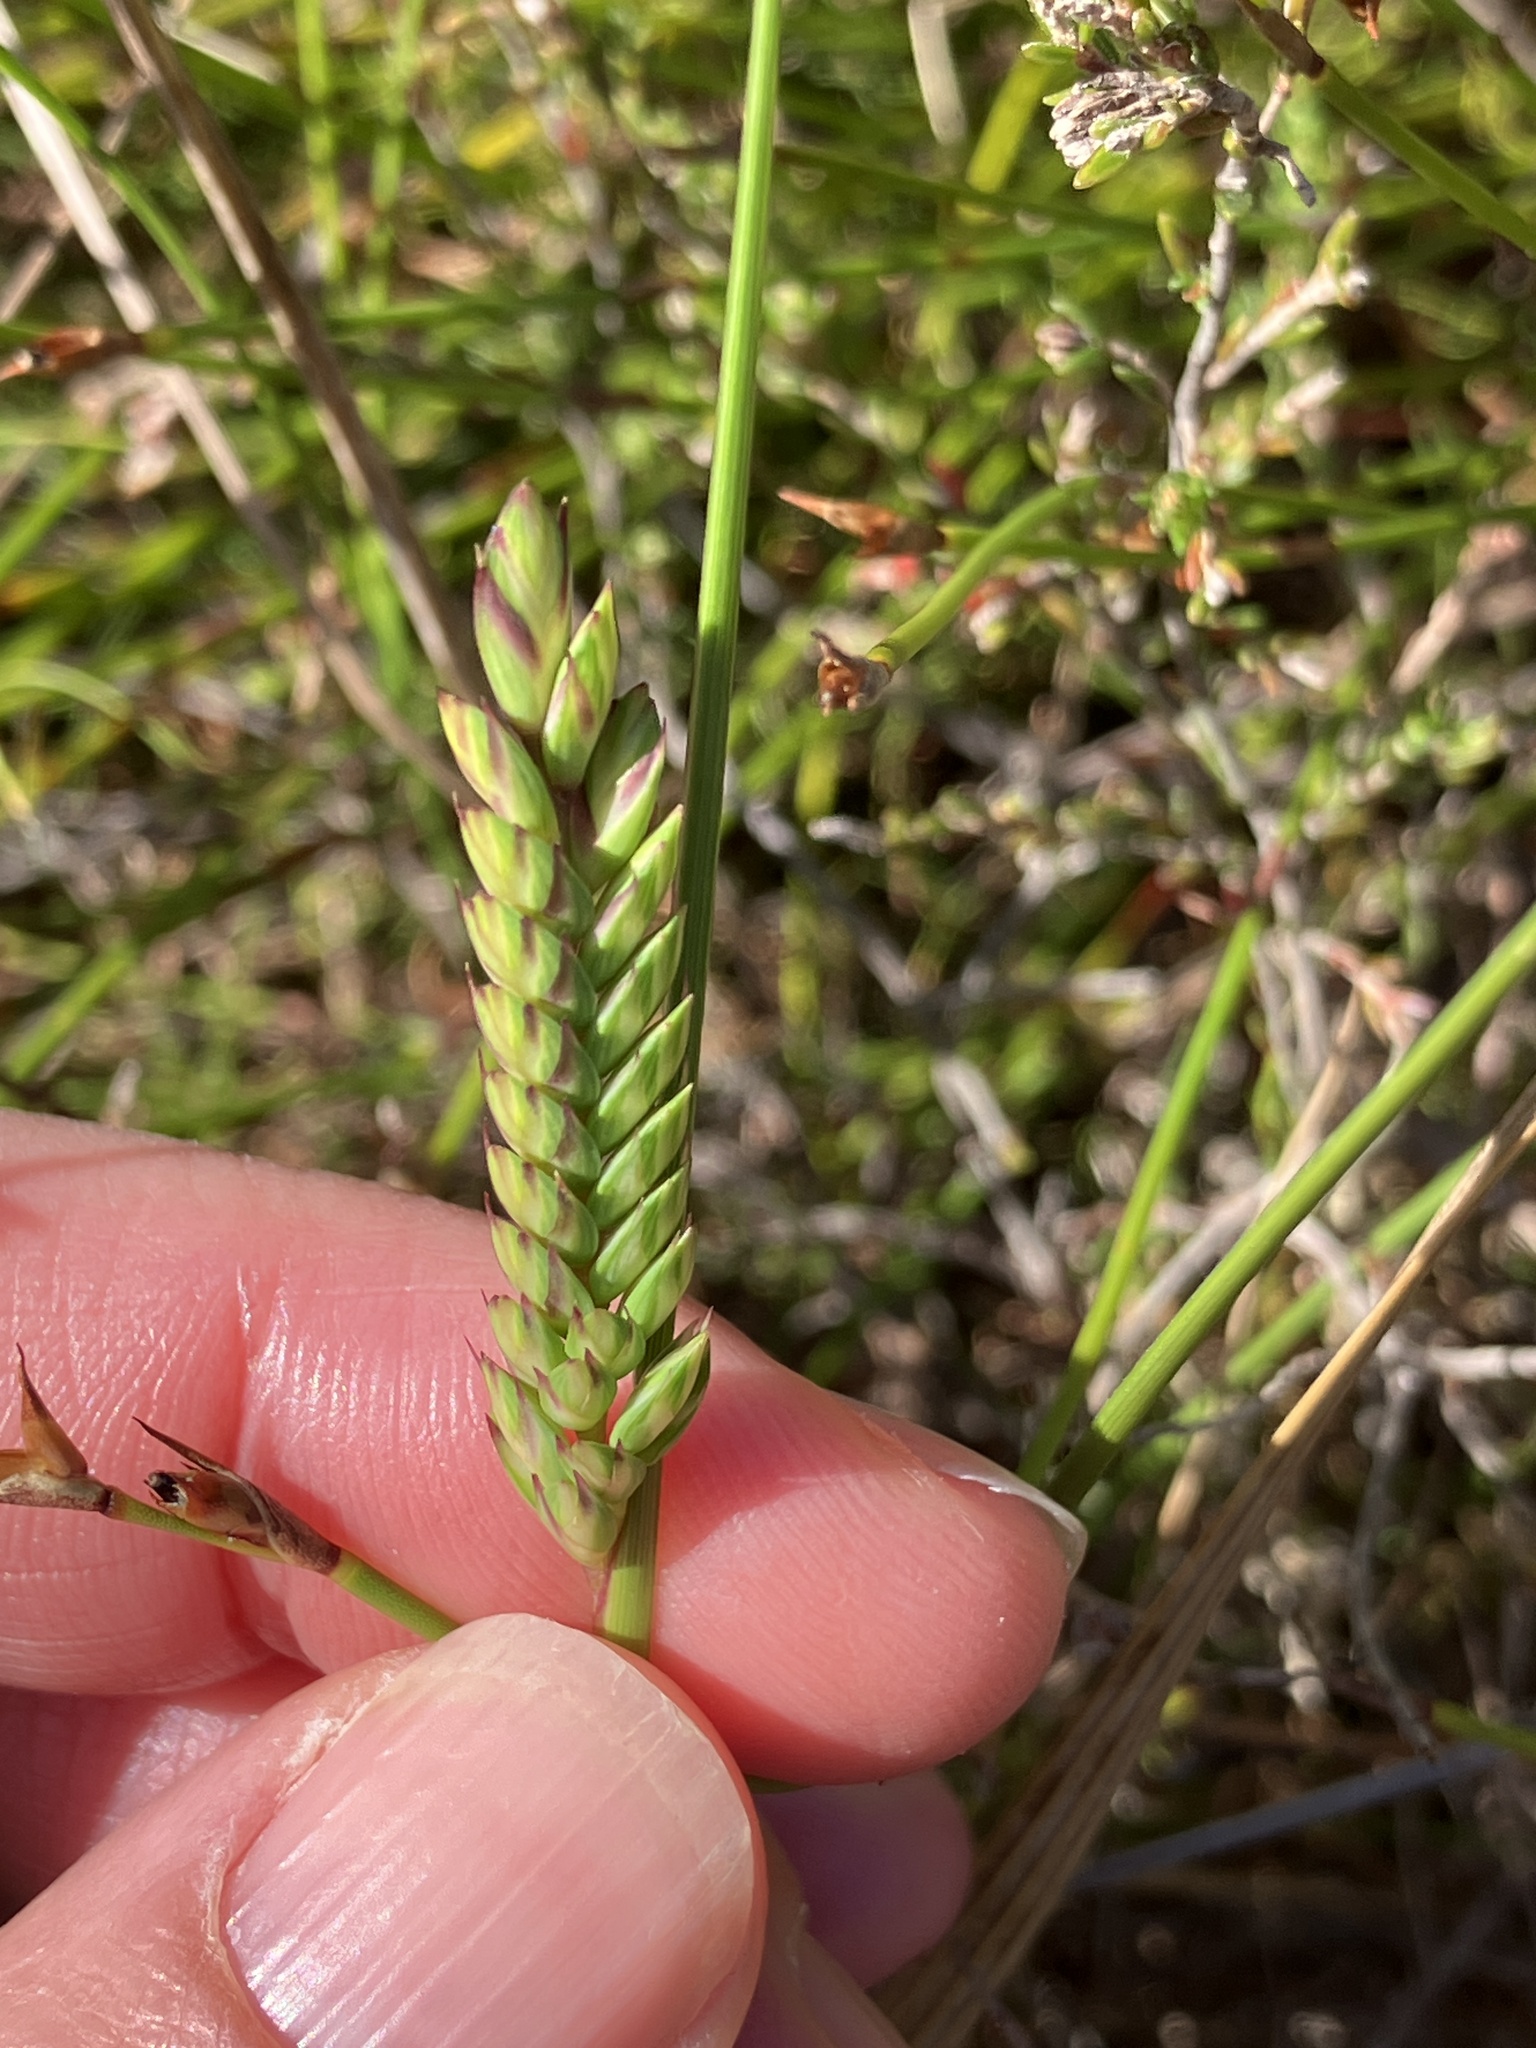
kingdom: Plantae
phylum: Tracheophyta
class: Liliopsida
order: Poales
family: Poaceae
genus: Tribolium
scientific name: Tribolium uniolae
